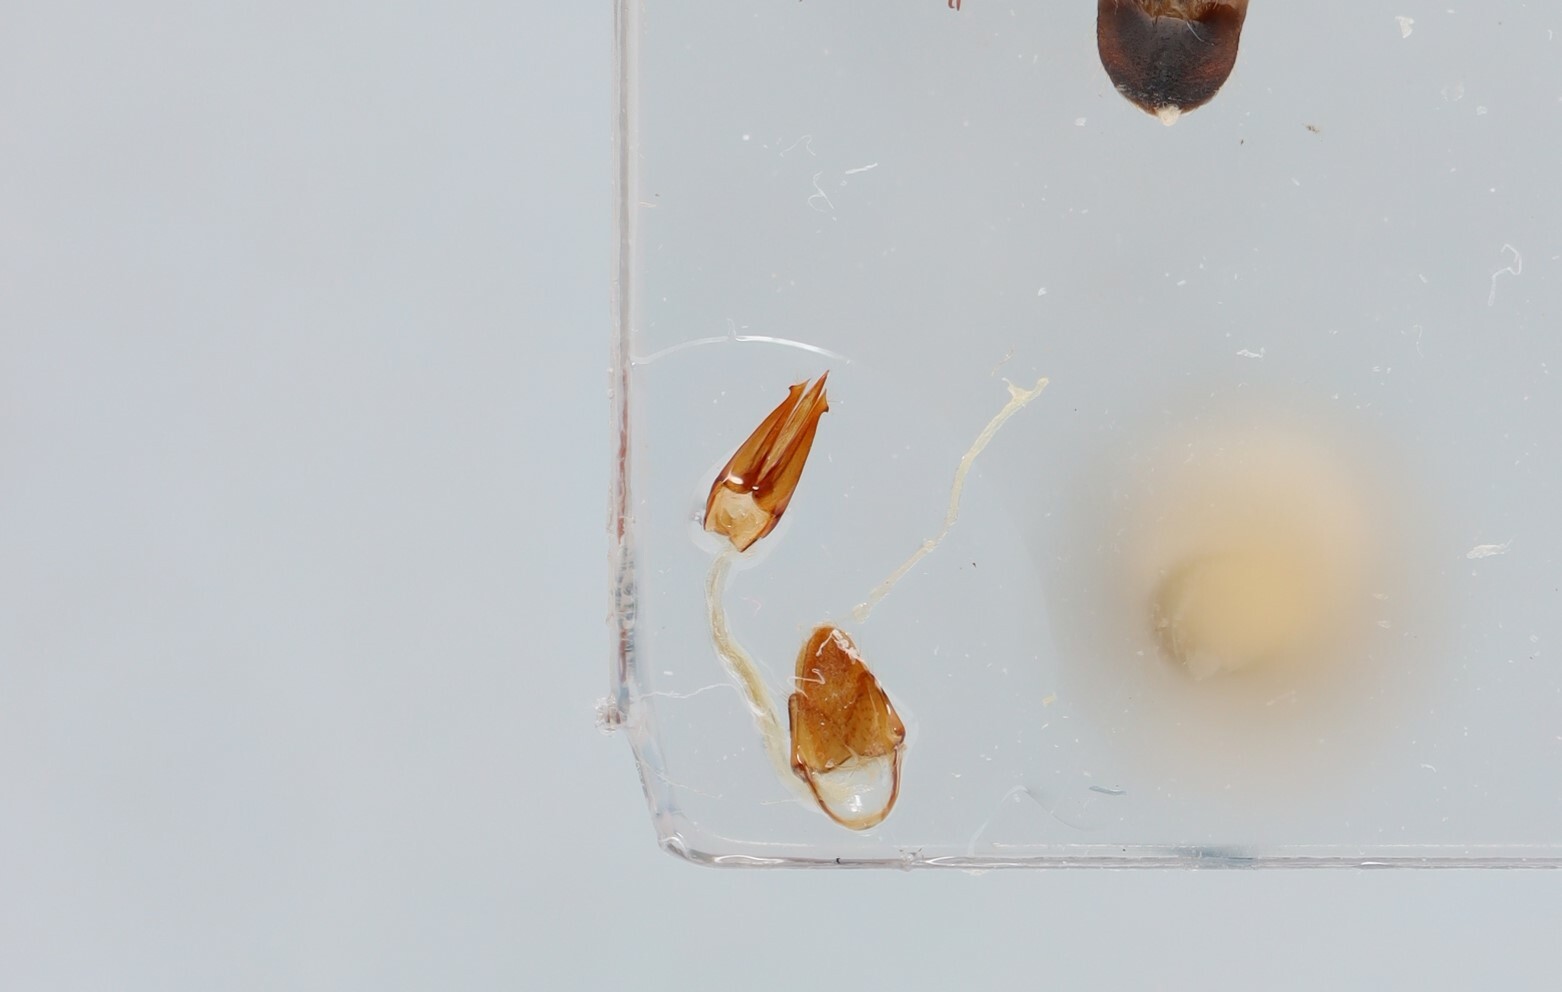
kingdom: Animalia
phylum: Arthropoda
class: Insecta
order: Coleoptera
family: Elateridae
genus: Ampedus
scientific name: Ampedus protervus
